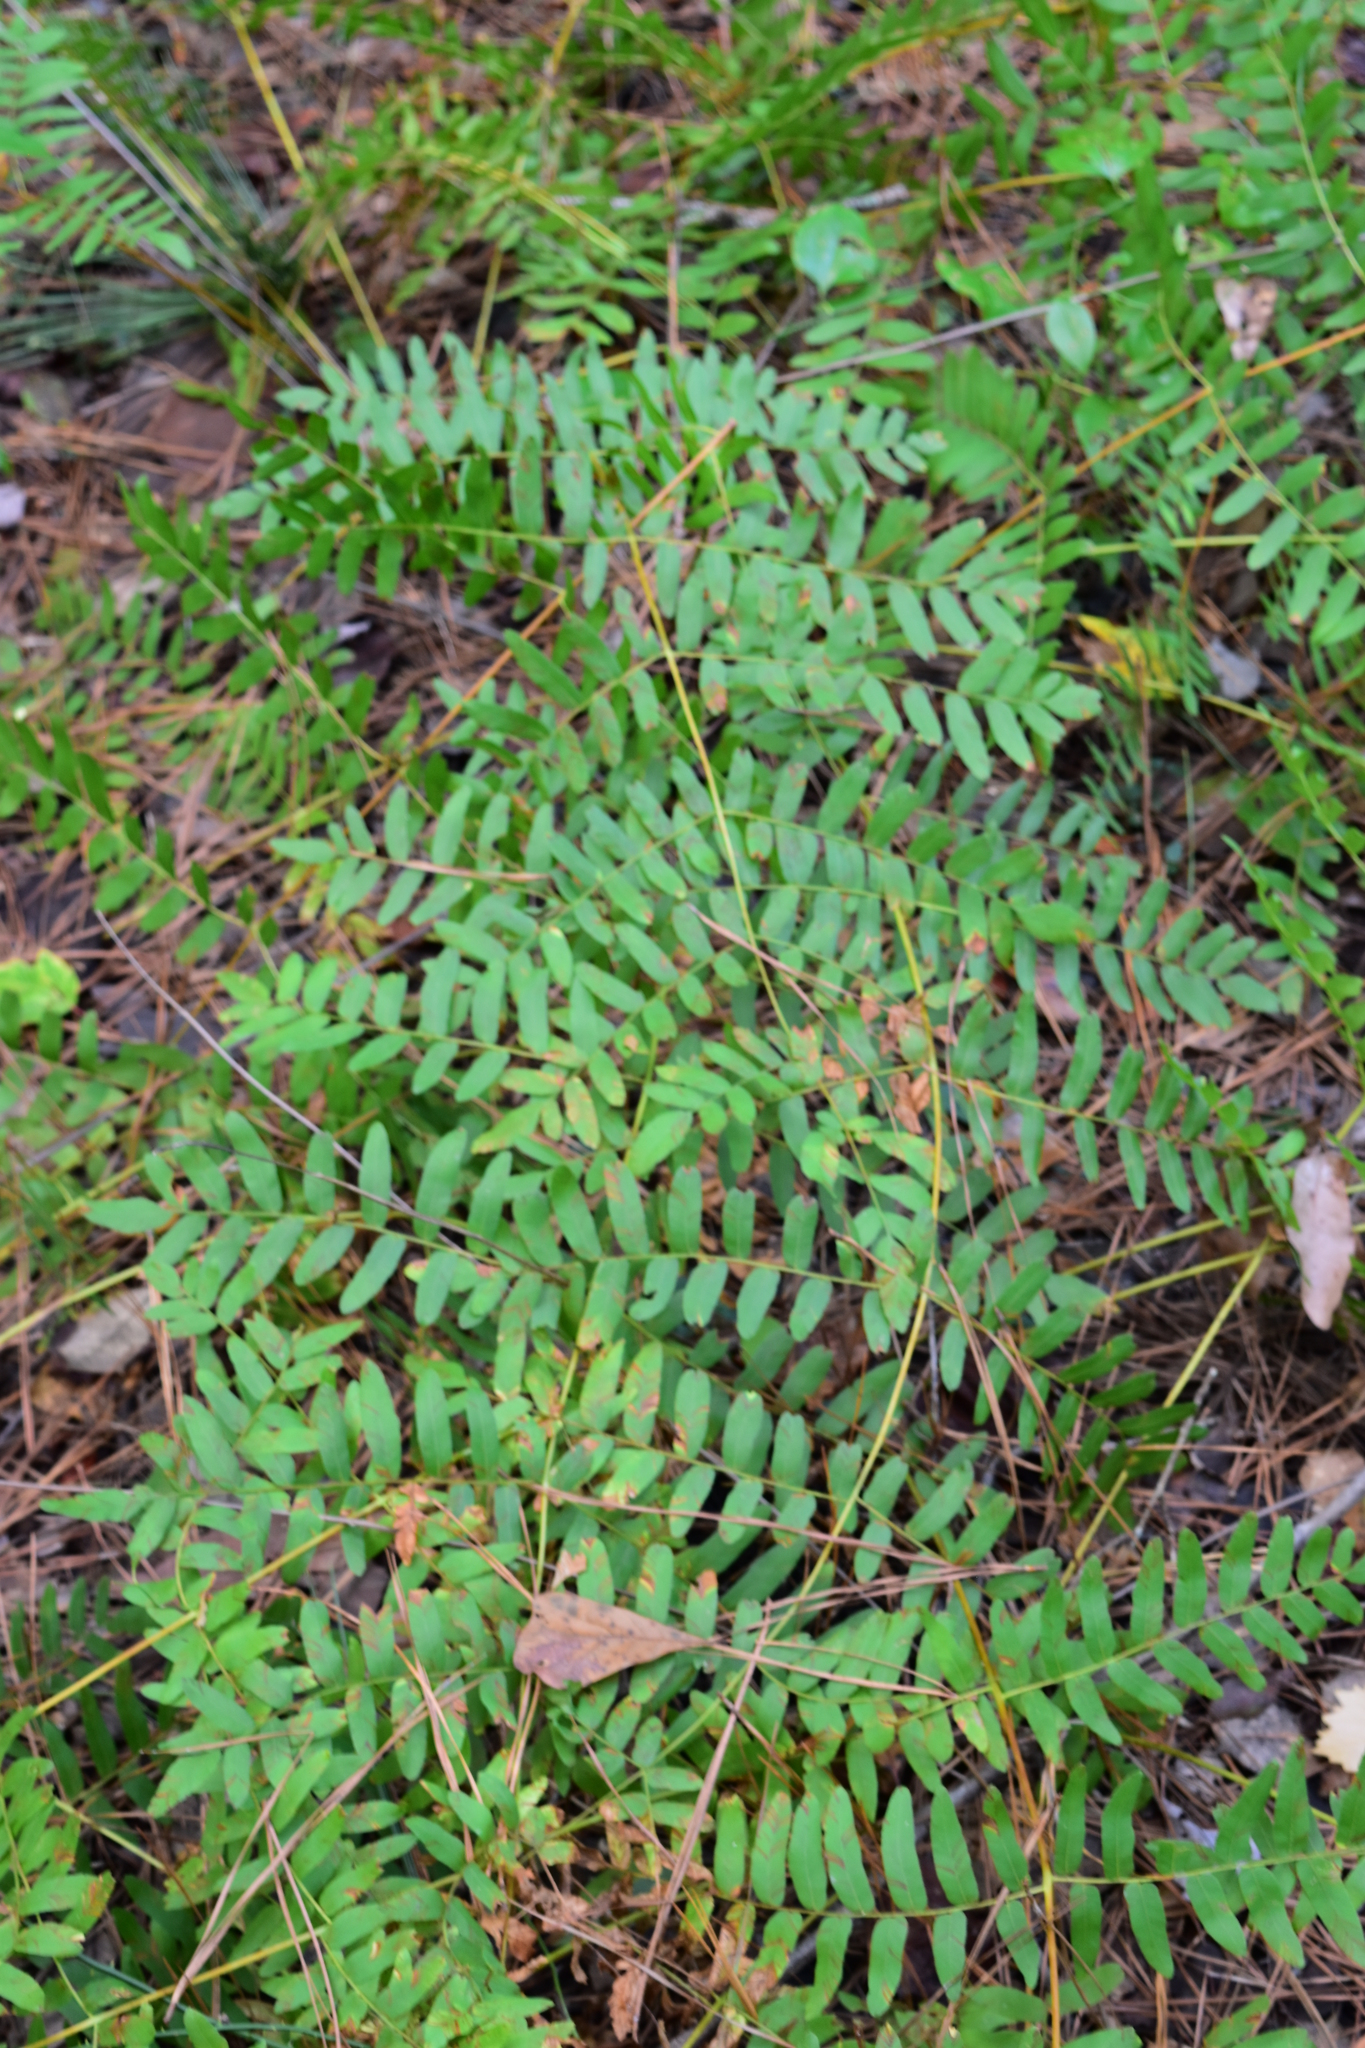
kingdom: Plantae
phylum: Tracheophyta
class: Polypodiopsida
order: Osmundales
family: Osmundaceae
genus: Osmunda
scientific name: Osmunda spectabilis
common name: American royal fern
